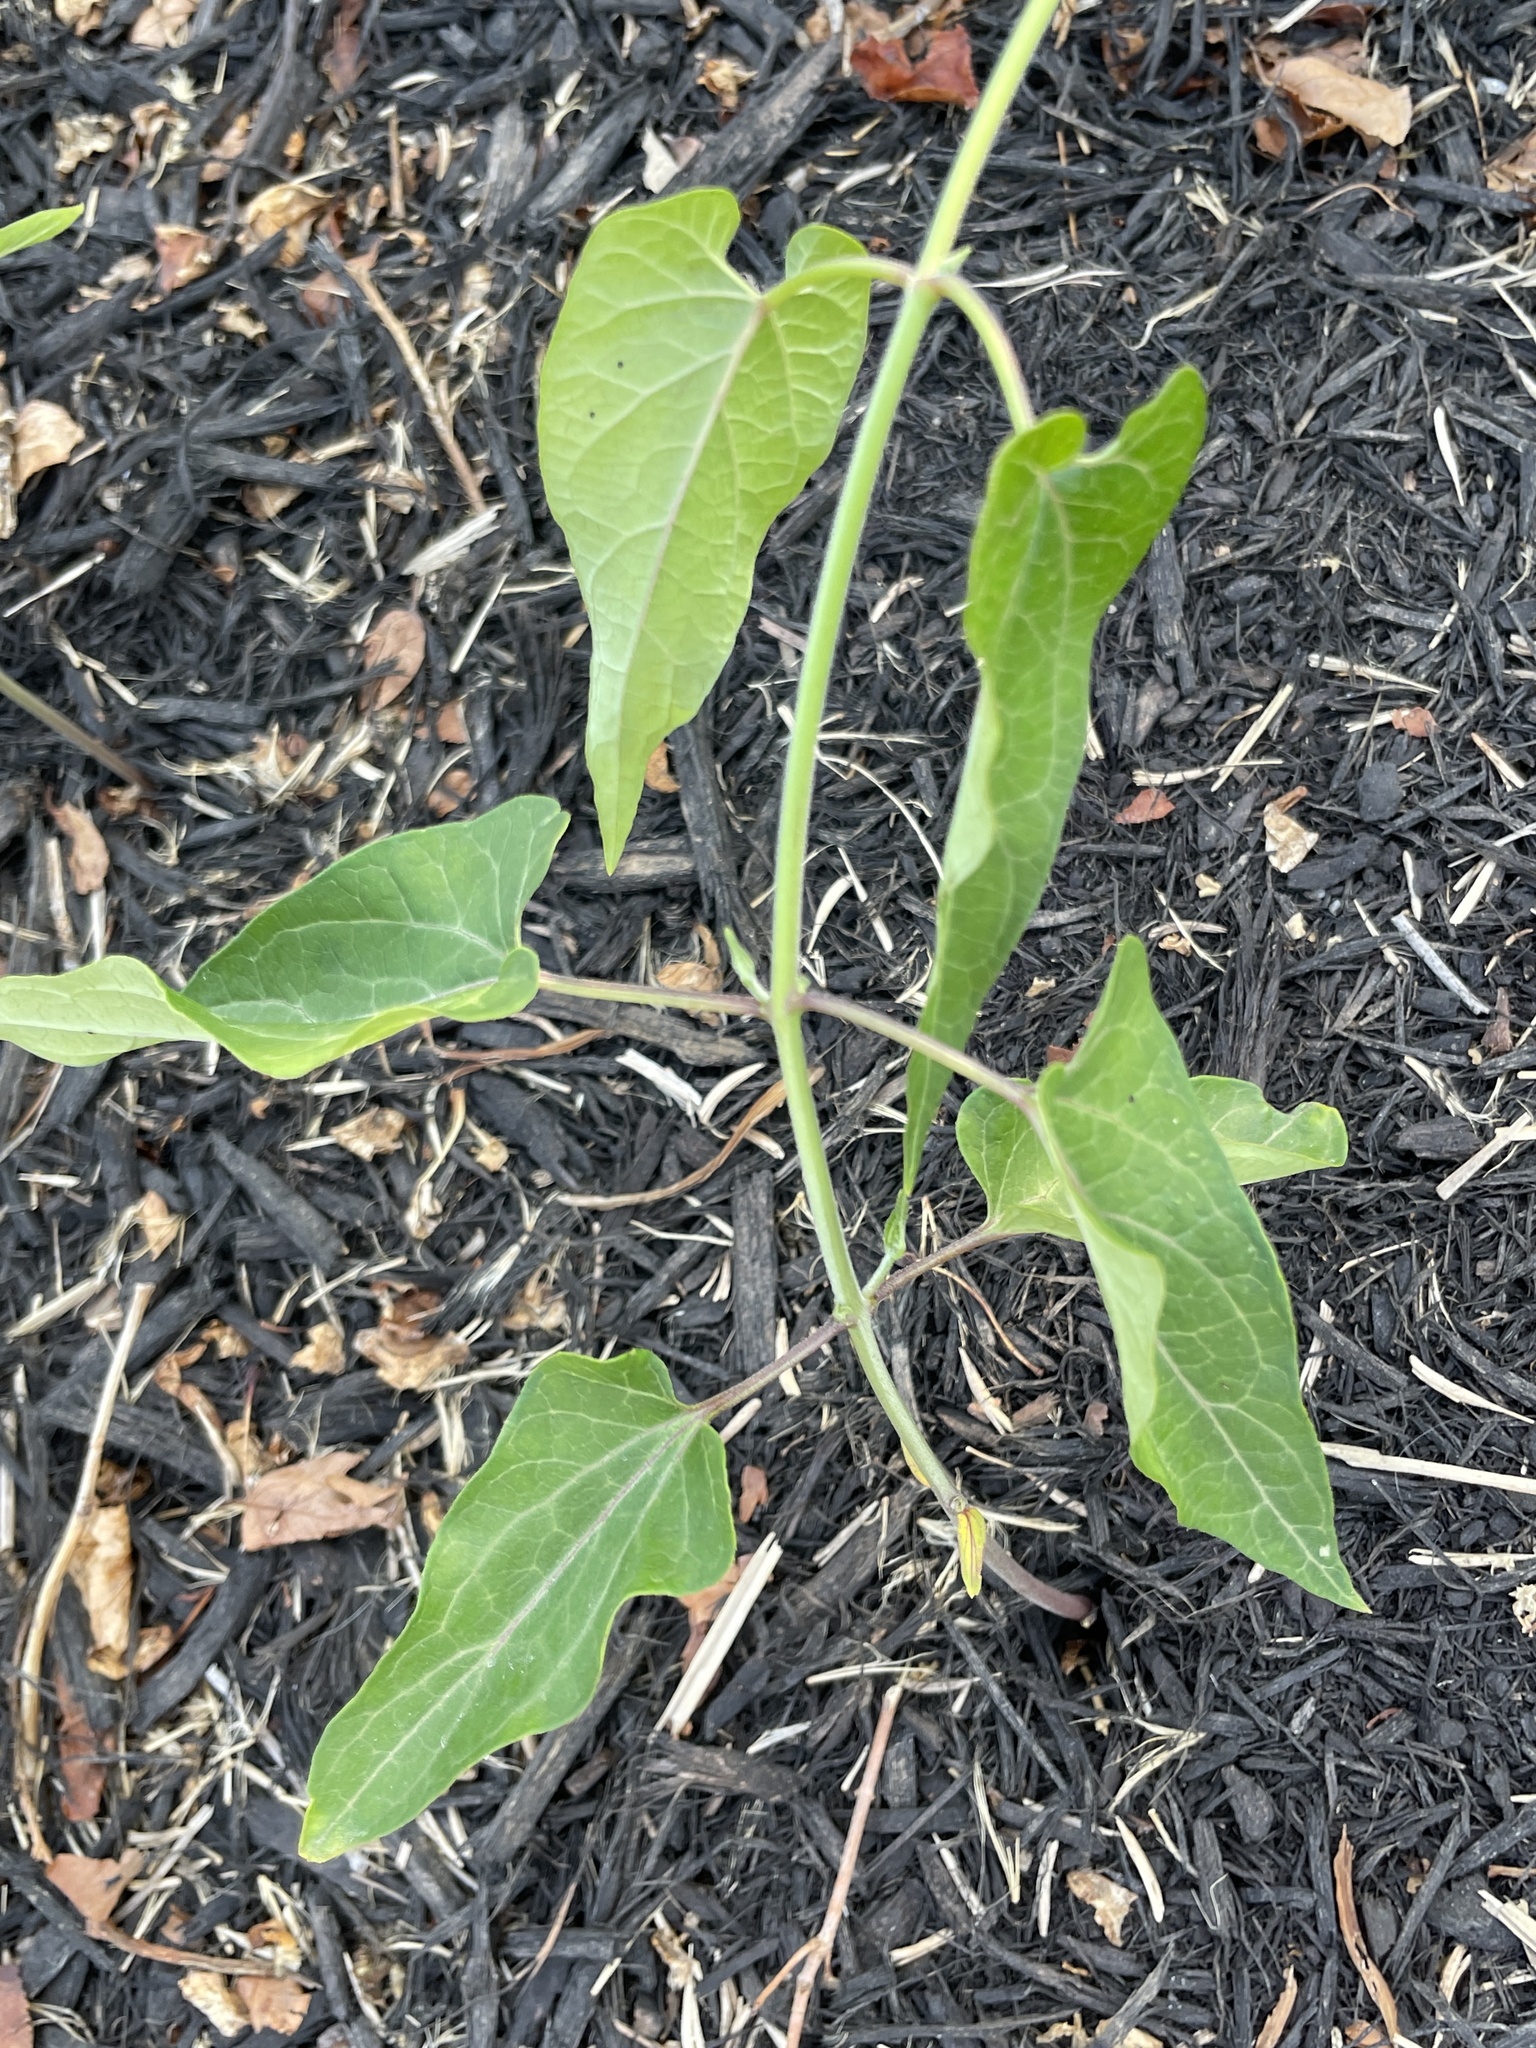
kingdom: Plantae
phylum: Tracheophyta
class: Magnoliopsida
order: Gentianales
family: Apocynaceae
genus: Cynanchum
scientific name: Cynanchum laeve
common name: Sandvine
